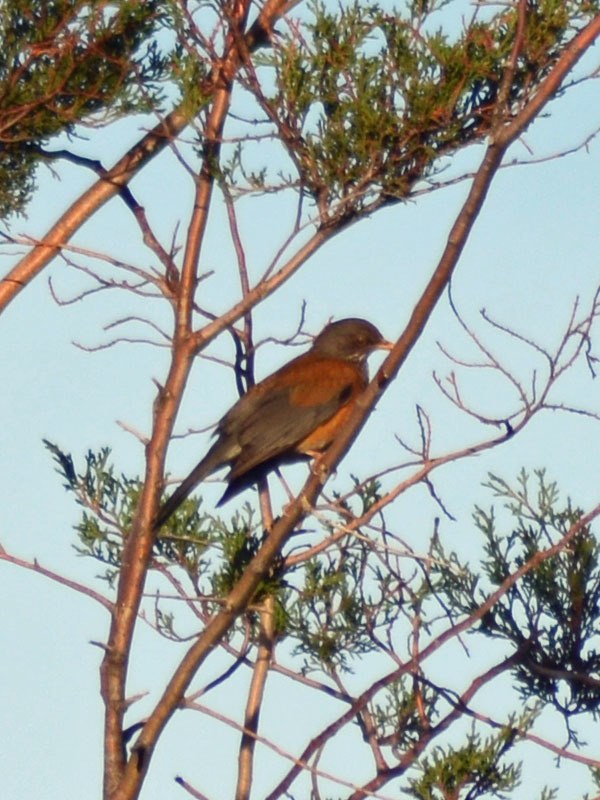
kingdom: Animalia
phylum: Chordata
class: Aves
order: Passeriformes
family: Turdidae
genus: Turdus
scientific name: Turdus rufopalliatus
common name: Rufous-backed robin
